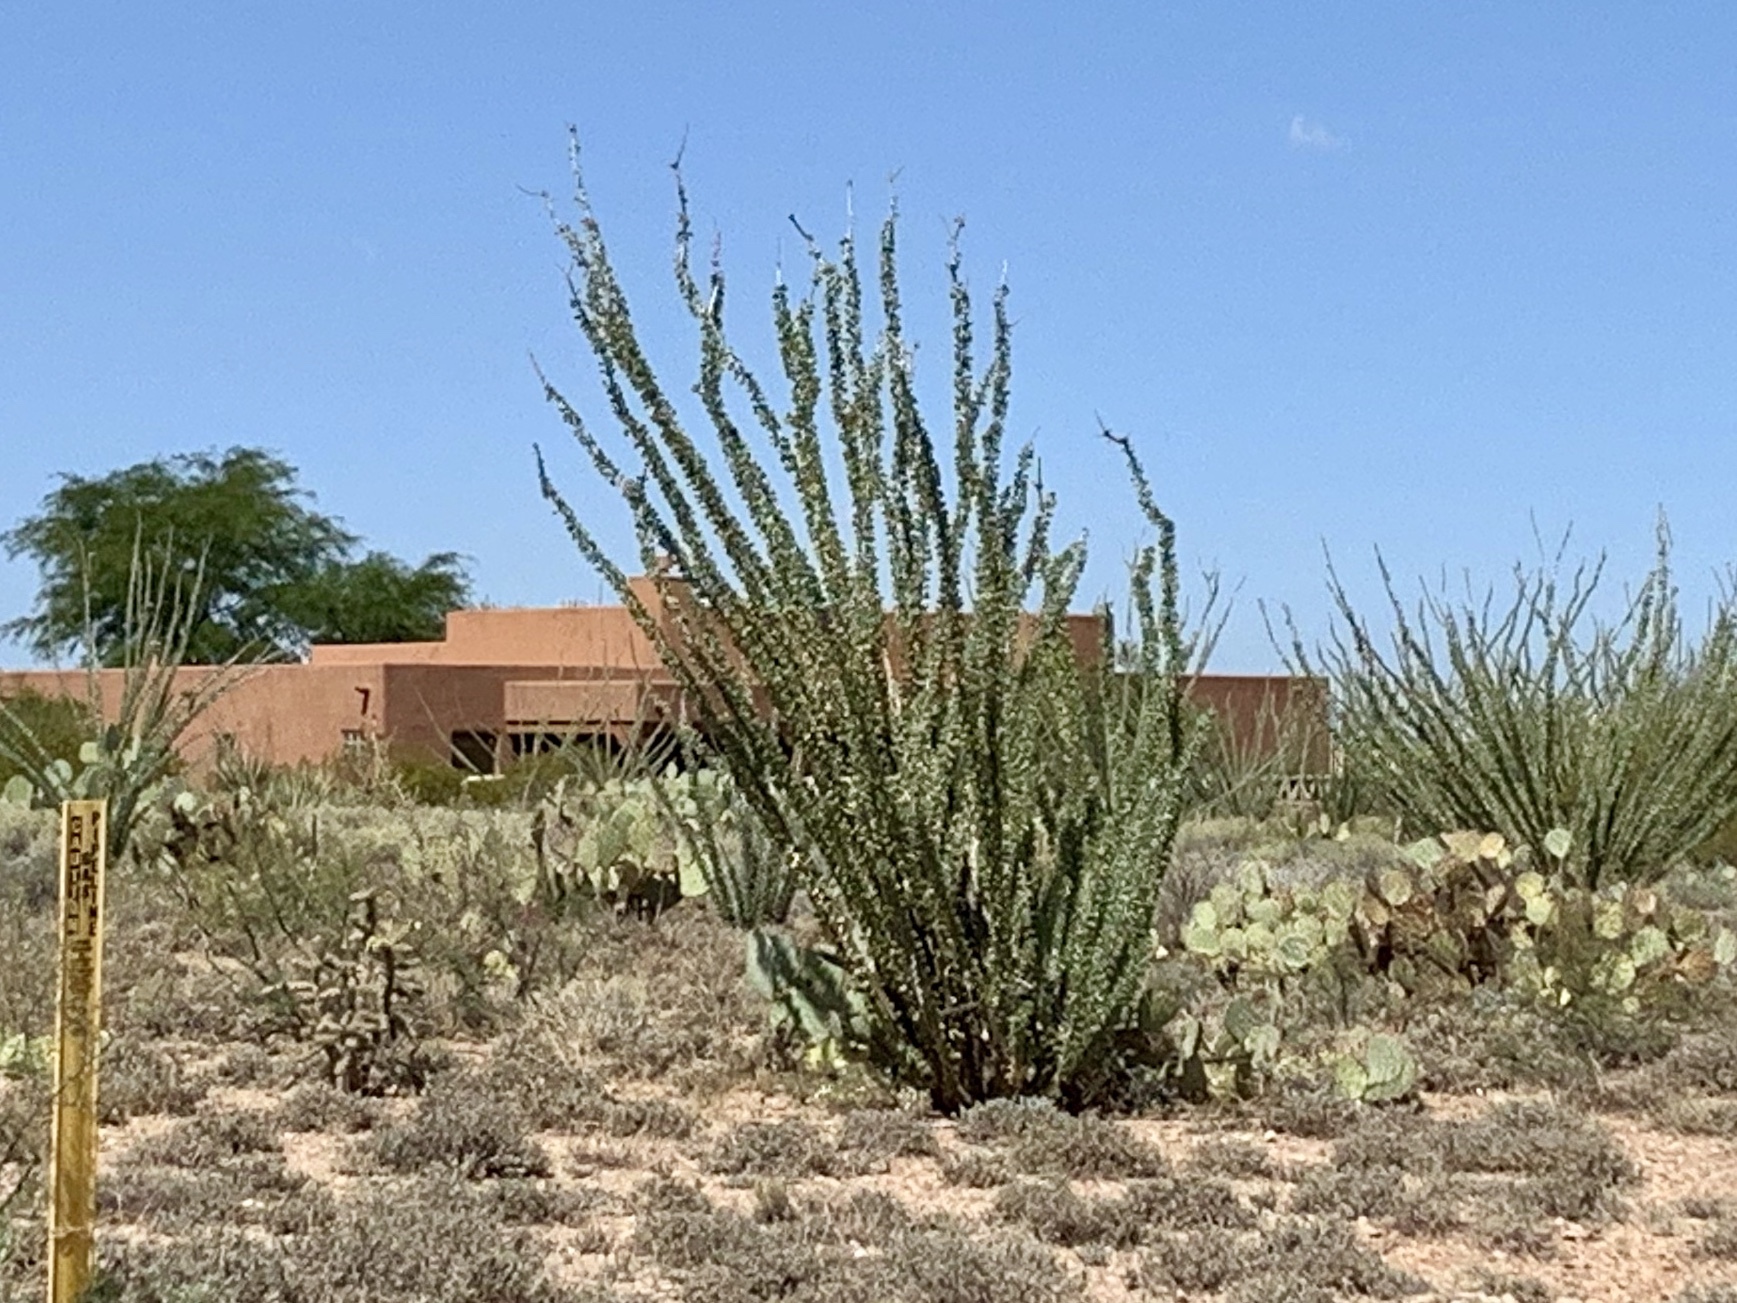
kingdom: Plantae
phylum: Tracheophyta
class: Magnoliopsida
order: Ericales
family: Fouquieriaceae
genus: Fouquieria
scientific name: Fouquieria splendens
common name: Vine-cactus
